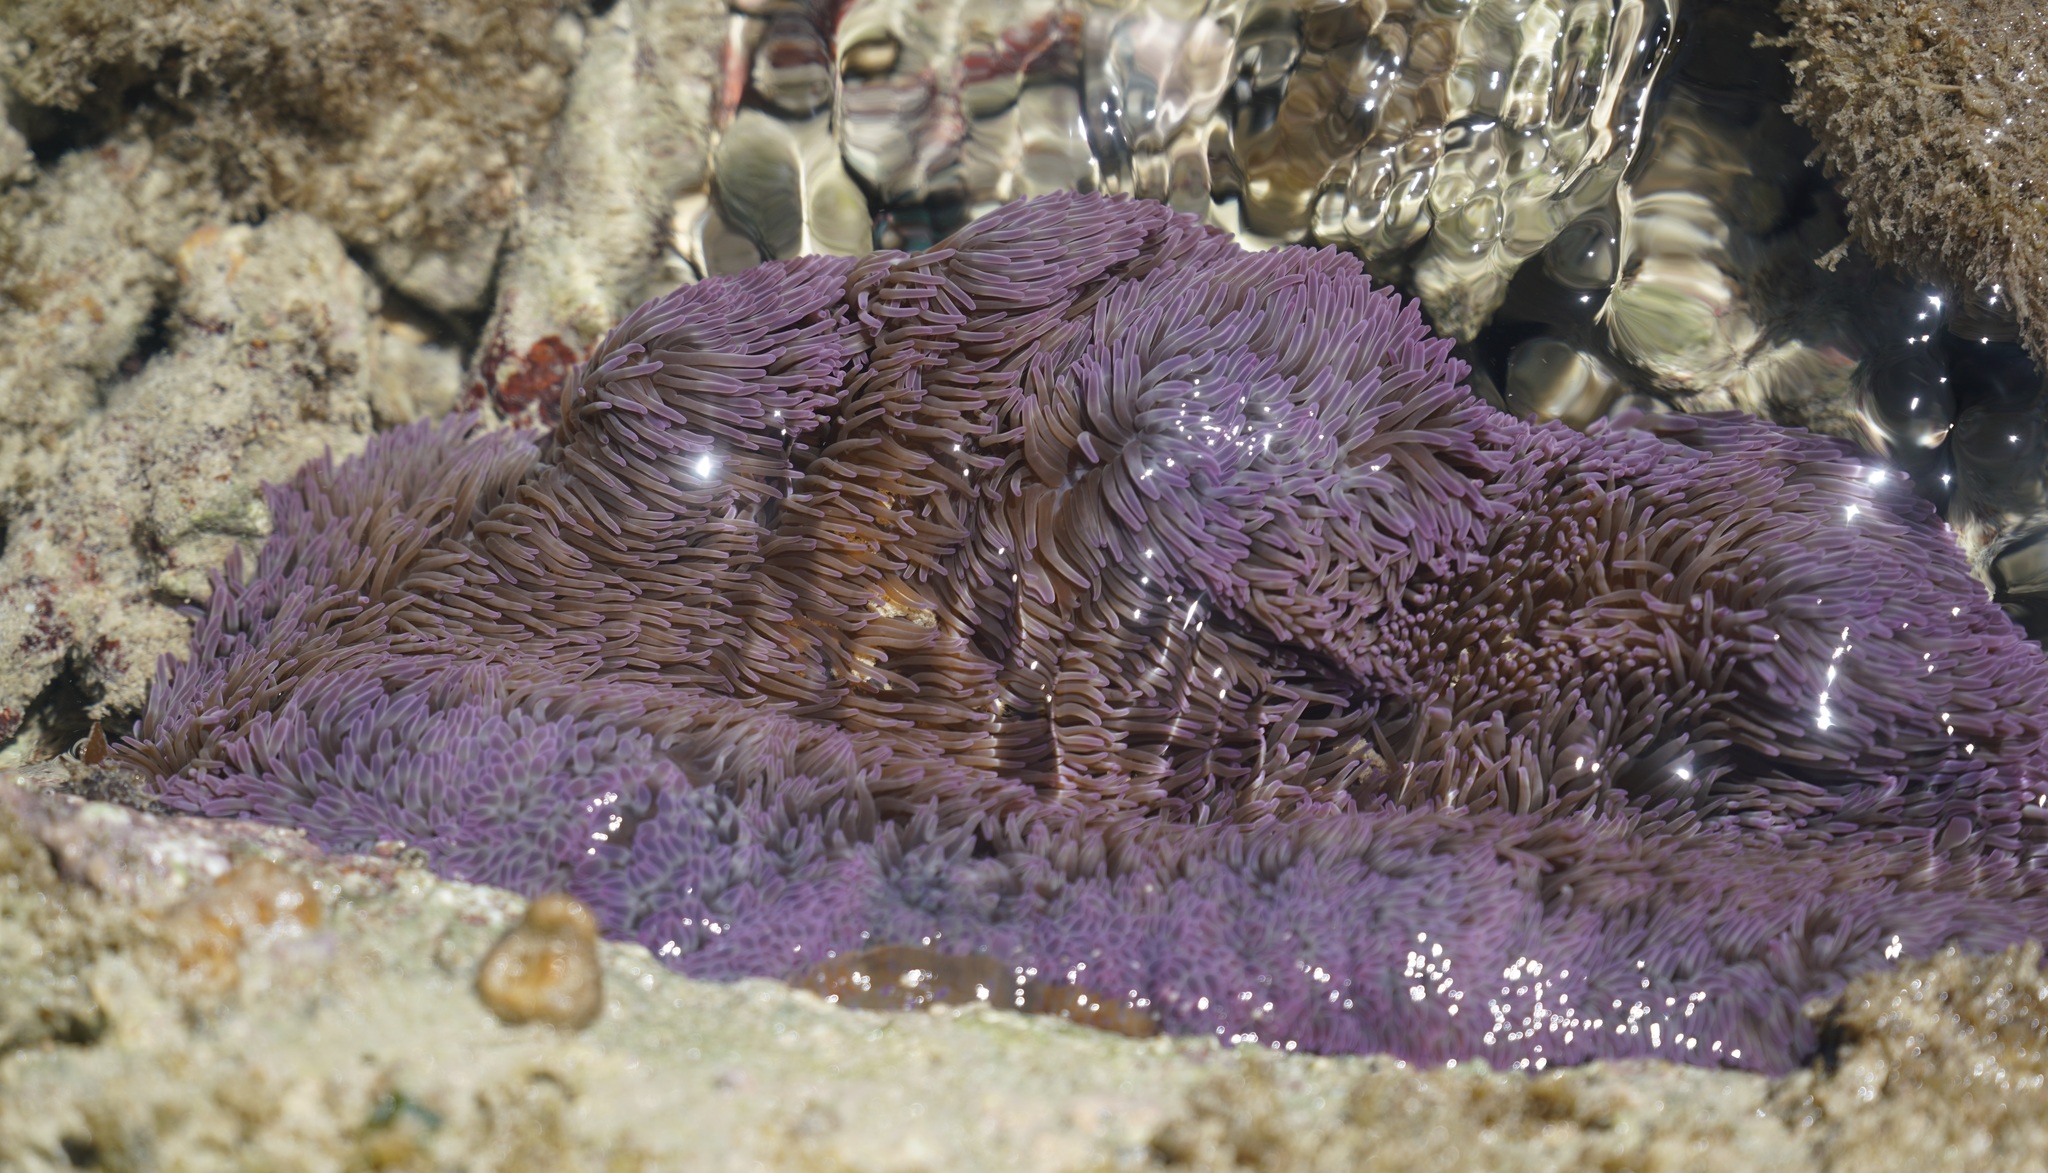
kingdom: Animalia
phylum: Cnidaria
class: Anthozoa
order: Actiniaria
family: Stichodactylidae
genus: Stichodactyla
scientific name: Stichodactyla gigantea
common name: Giant anemone
